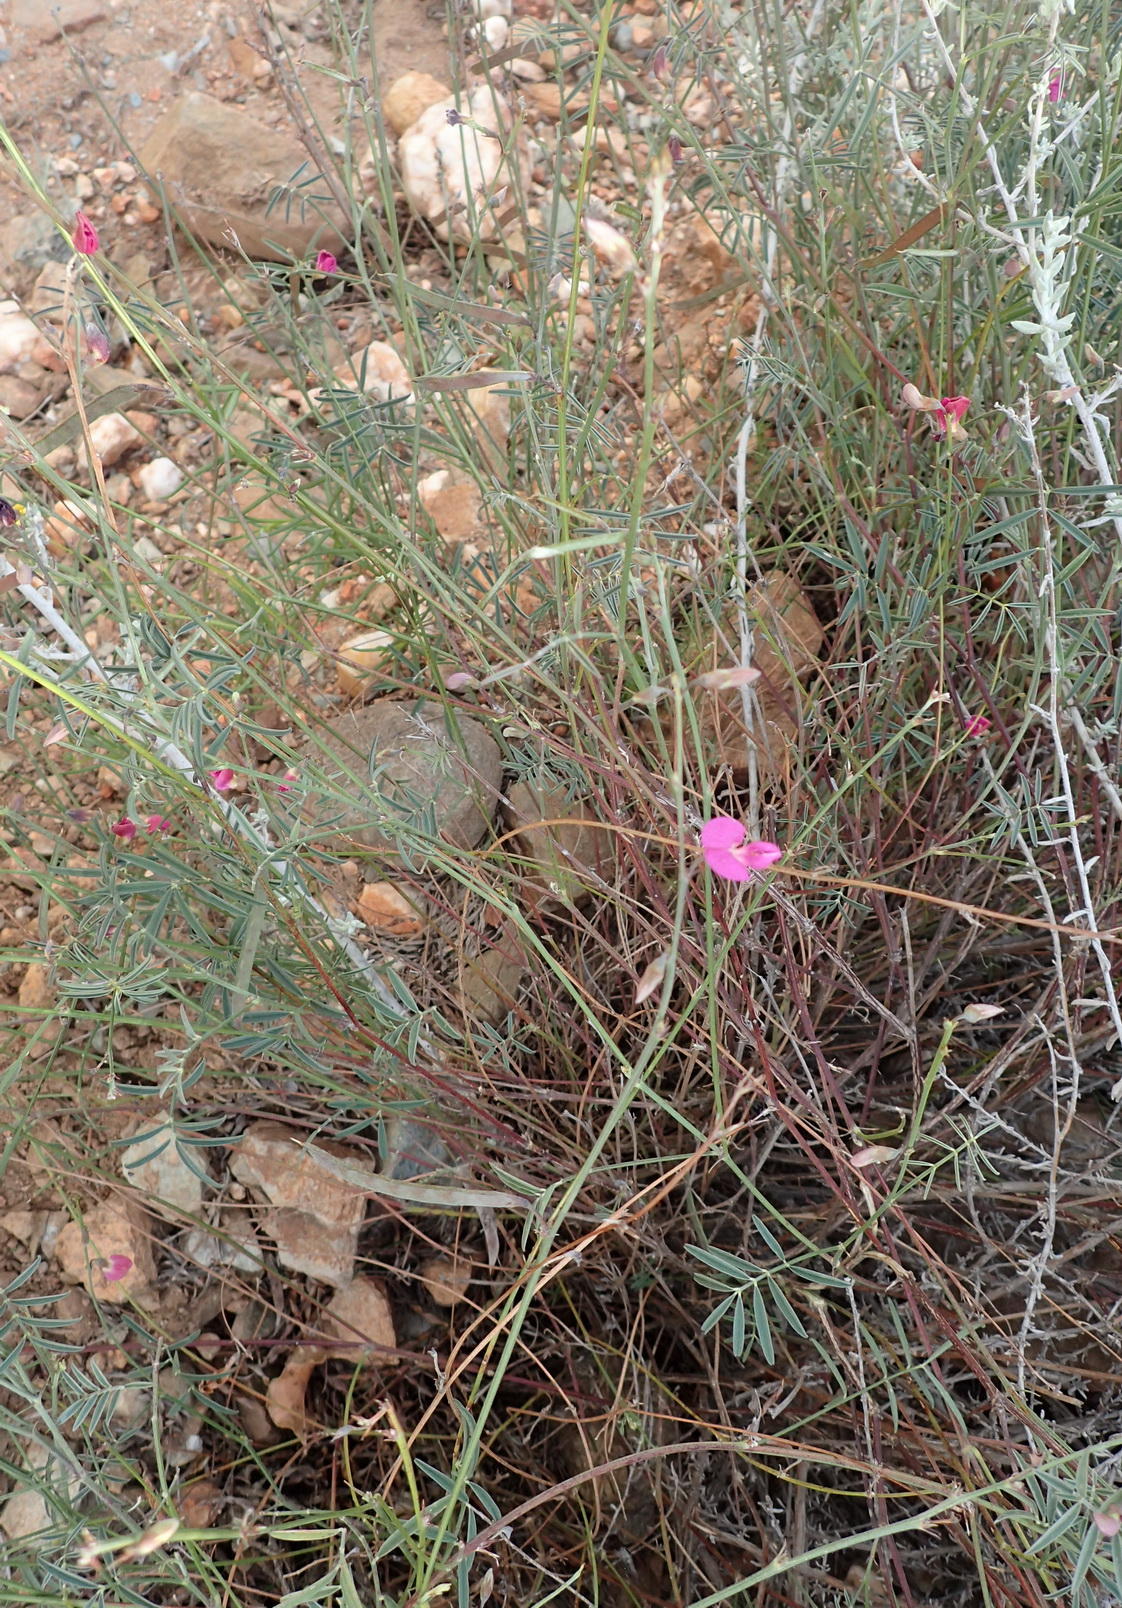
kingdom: Plantae
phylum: Tracheophyta
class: Magnoliopsida
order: Fabales
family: Fabaceae
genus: Tephrosia
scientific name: Tephrosia capensis
